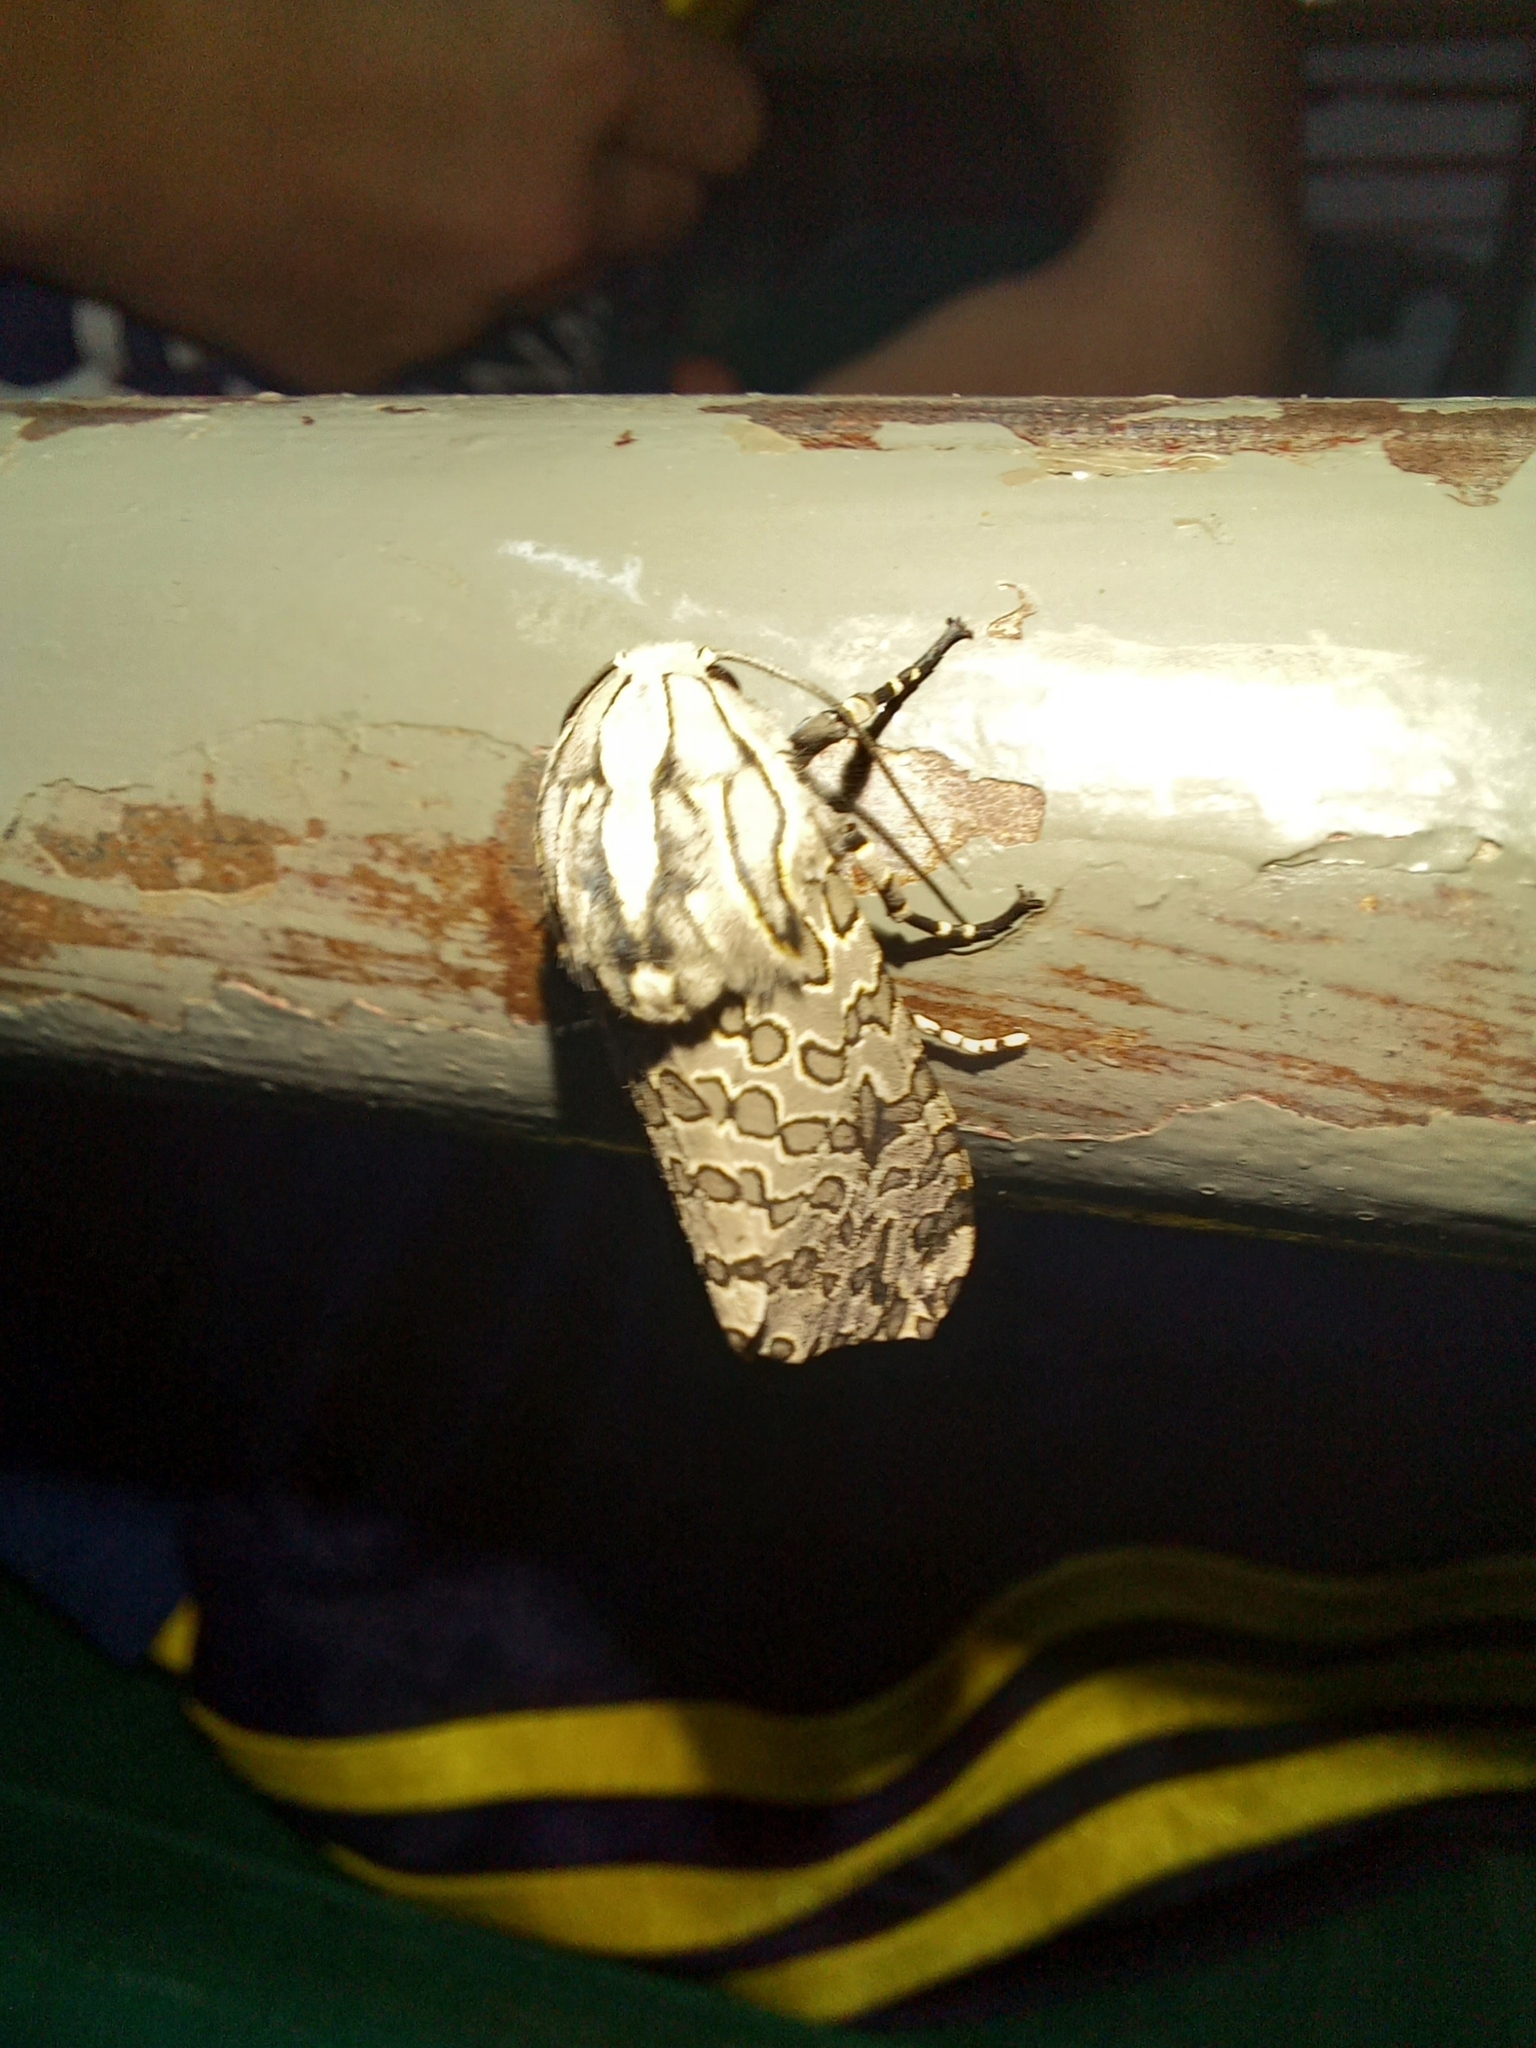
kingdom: Animalia
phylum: Arthropoda
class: Insecta
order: Lepidoptera
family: Erebidae
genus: Hypercompe
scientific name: Hypercompe indecisa
